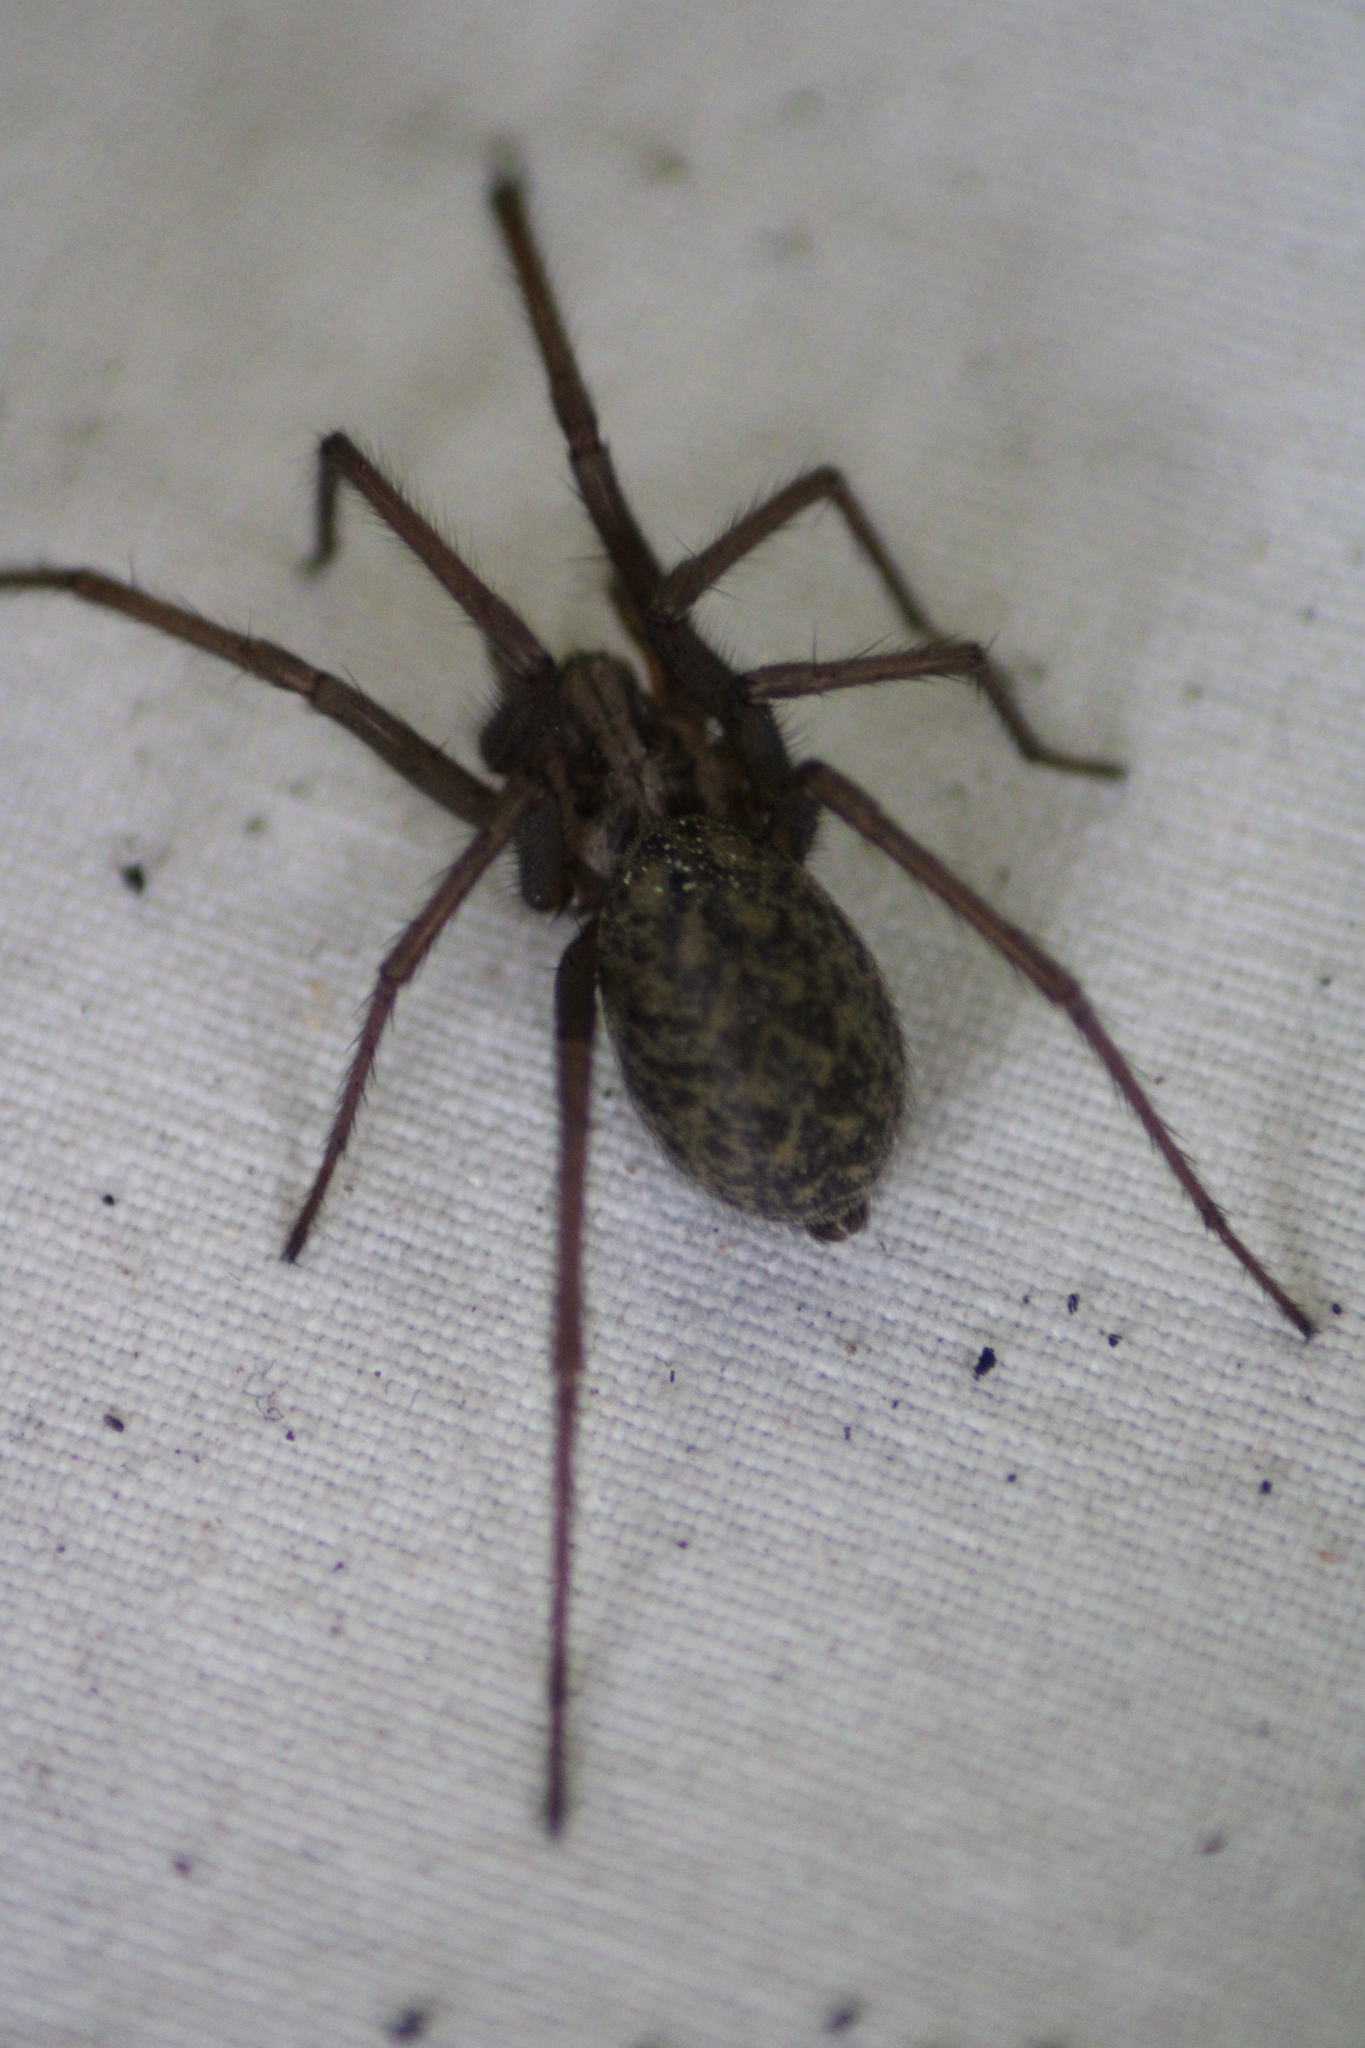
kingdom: Animalia
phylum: Arthropoda
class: Arachnida
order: Araneae
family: Agelenidae
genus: Eratigena
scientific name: Eratigena atrica
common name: Giant house spider
